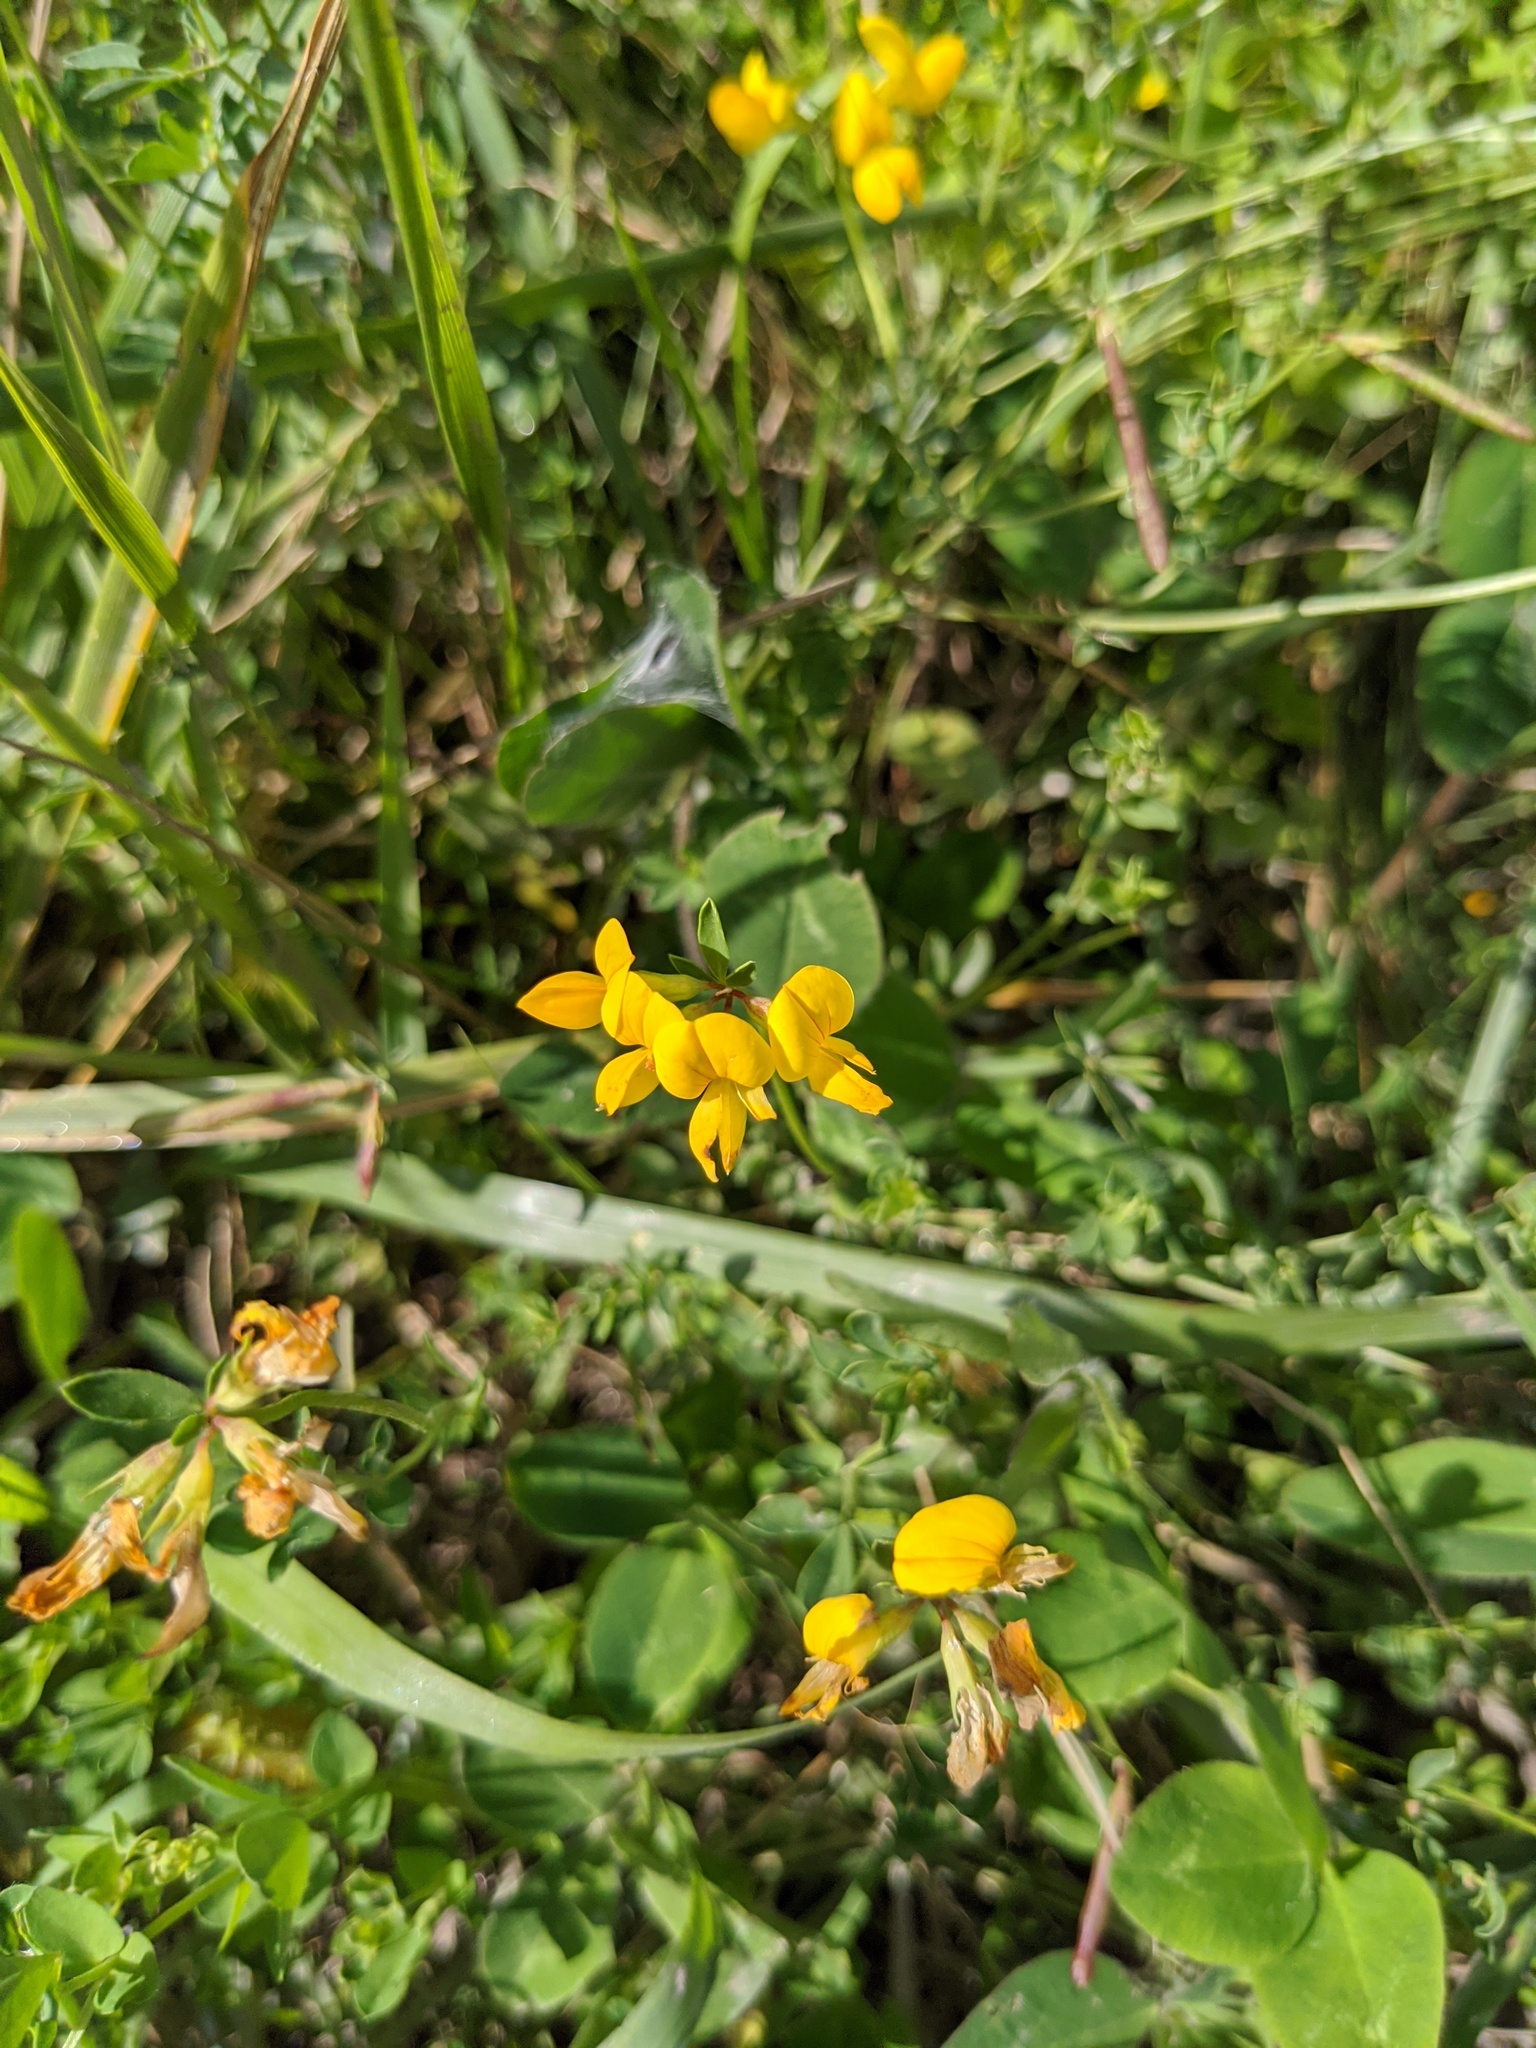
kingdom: Plantae
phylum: Tracheophyta
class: Magnoliopsida
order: Fabales
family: Fabaceae
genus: Lotus
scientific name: Lotus corniculatus
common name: Common bird's-foot-trefoil
